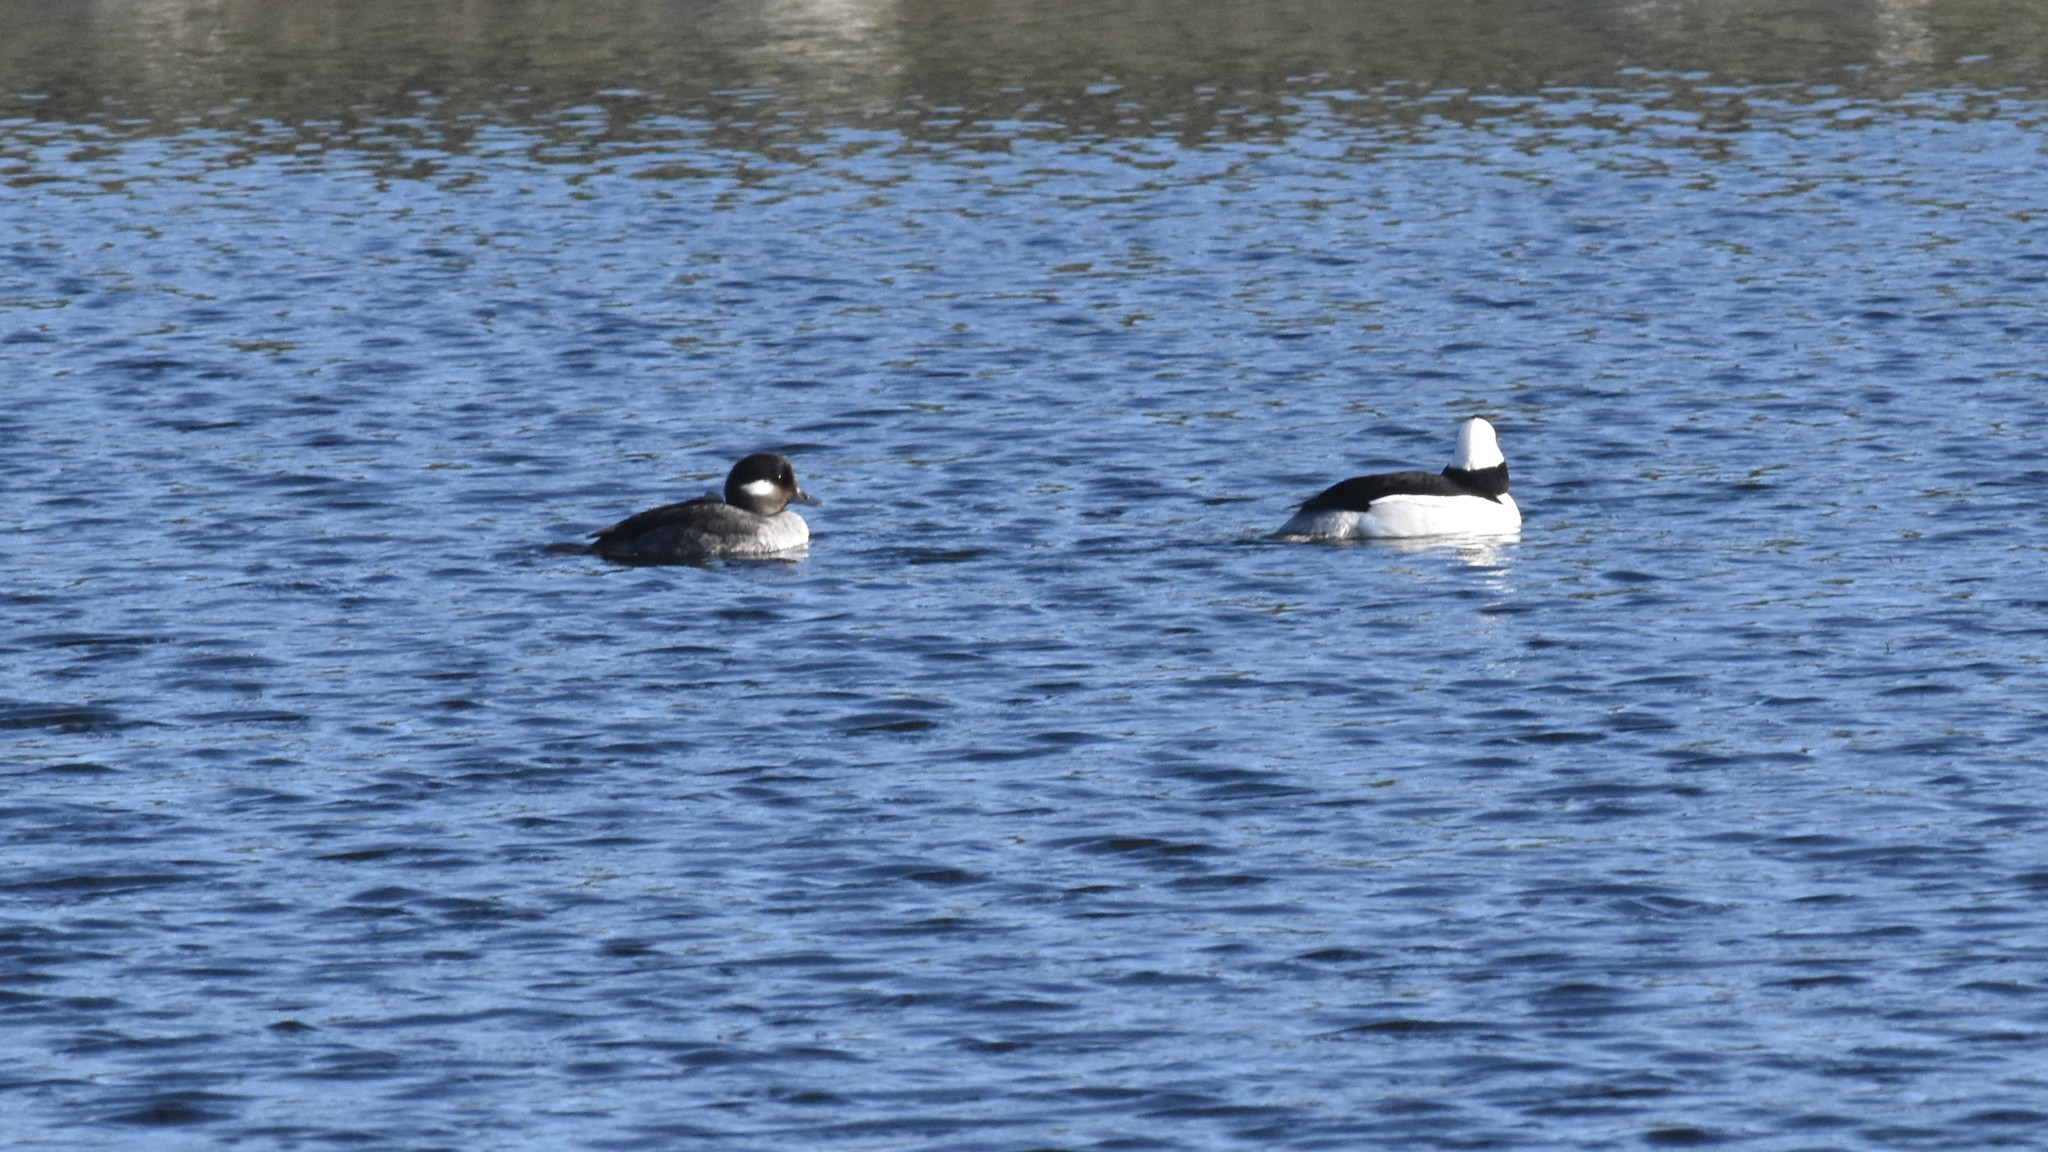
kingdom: Animalia
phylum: Chordata
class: Aves
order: Anseriformes
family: Anatidae
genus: Bucephala
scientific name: Bucephala albeola
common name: Bufflehead
